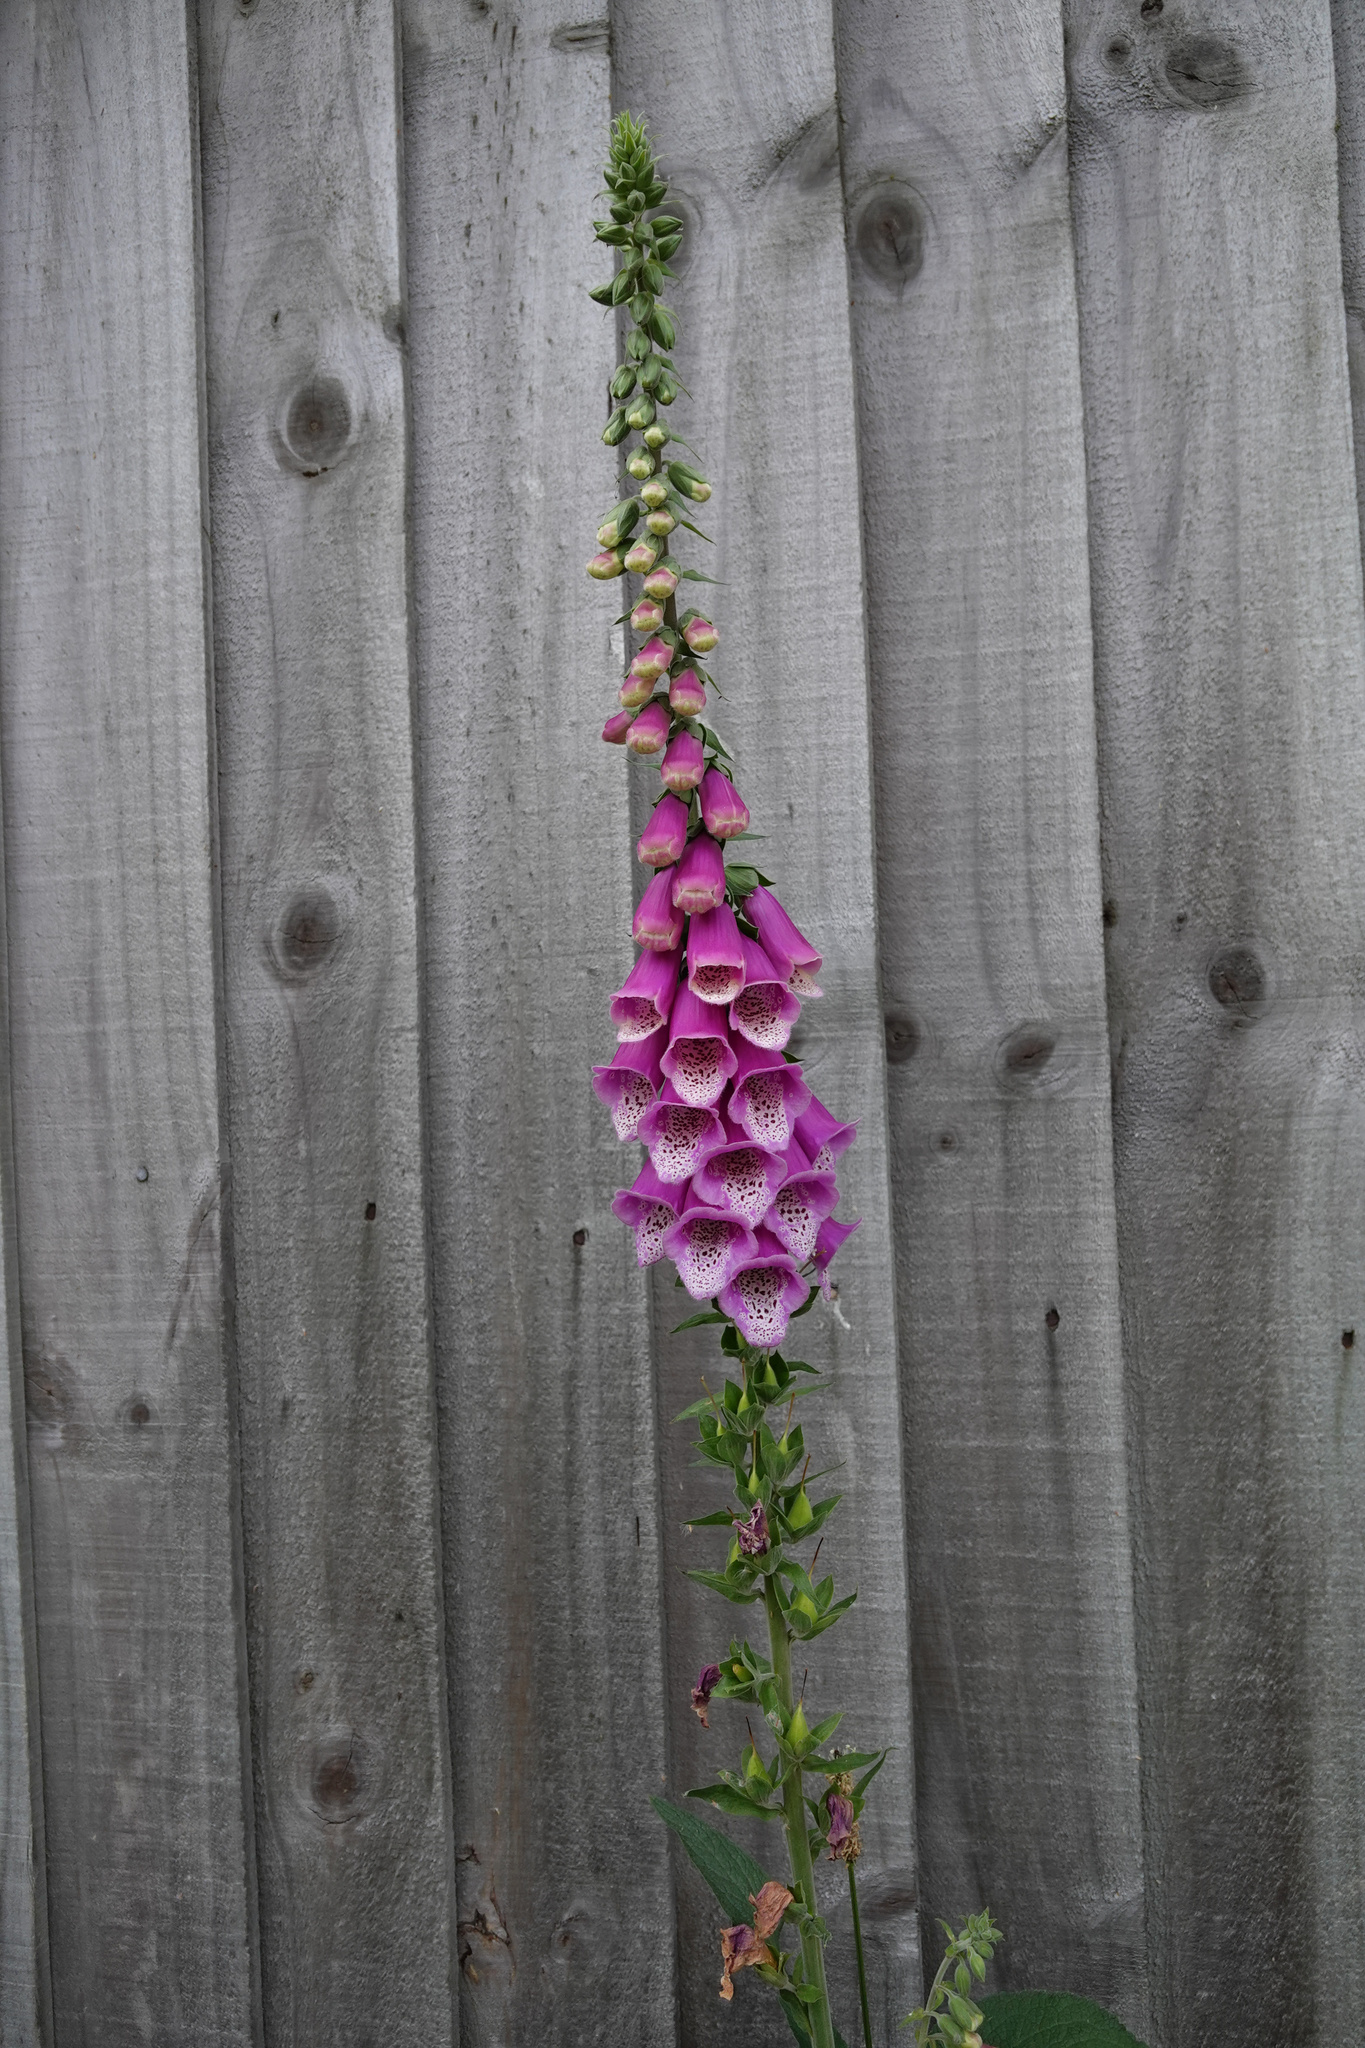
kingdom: Plantae
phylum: Tracheophyta
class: Magnoliopsida
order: Lamiales
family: Plantaginaceae
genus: Digitalis
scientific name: Digitalis purpurea
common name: Foxglove
